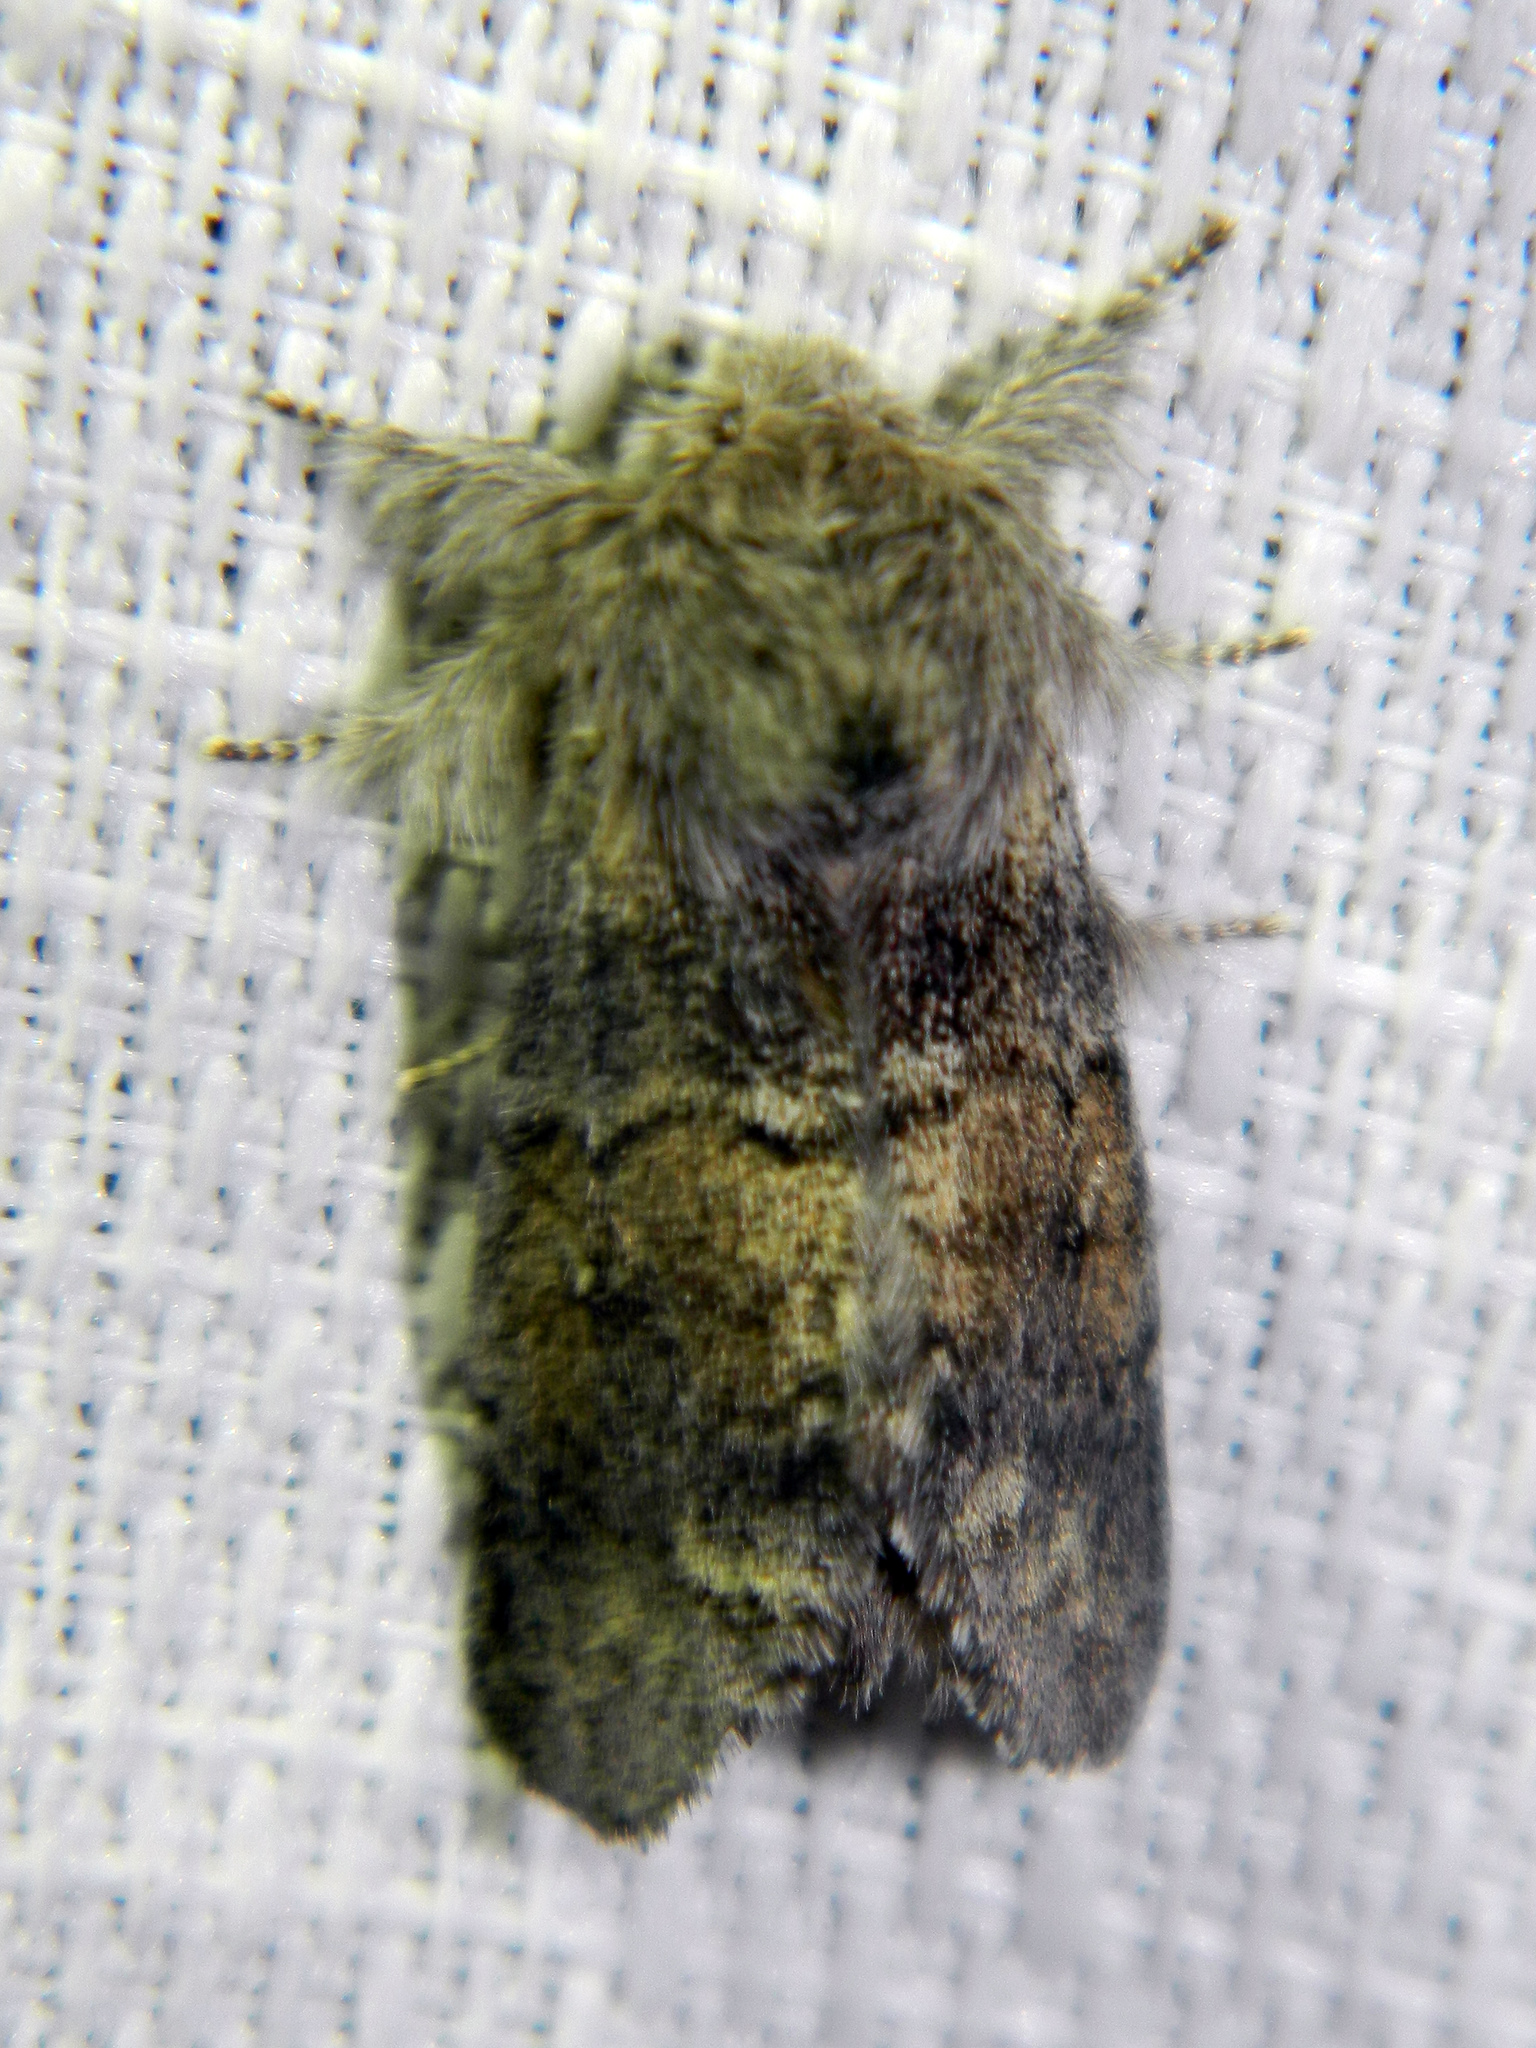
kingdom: Animalia
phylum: Arthropoda
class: Insecta
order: Lepidoptera
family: Notodontidae
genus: Gluphisia
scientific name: Gluphisia lintneri
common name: Lintner's gluphisia moth
